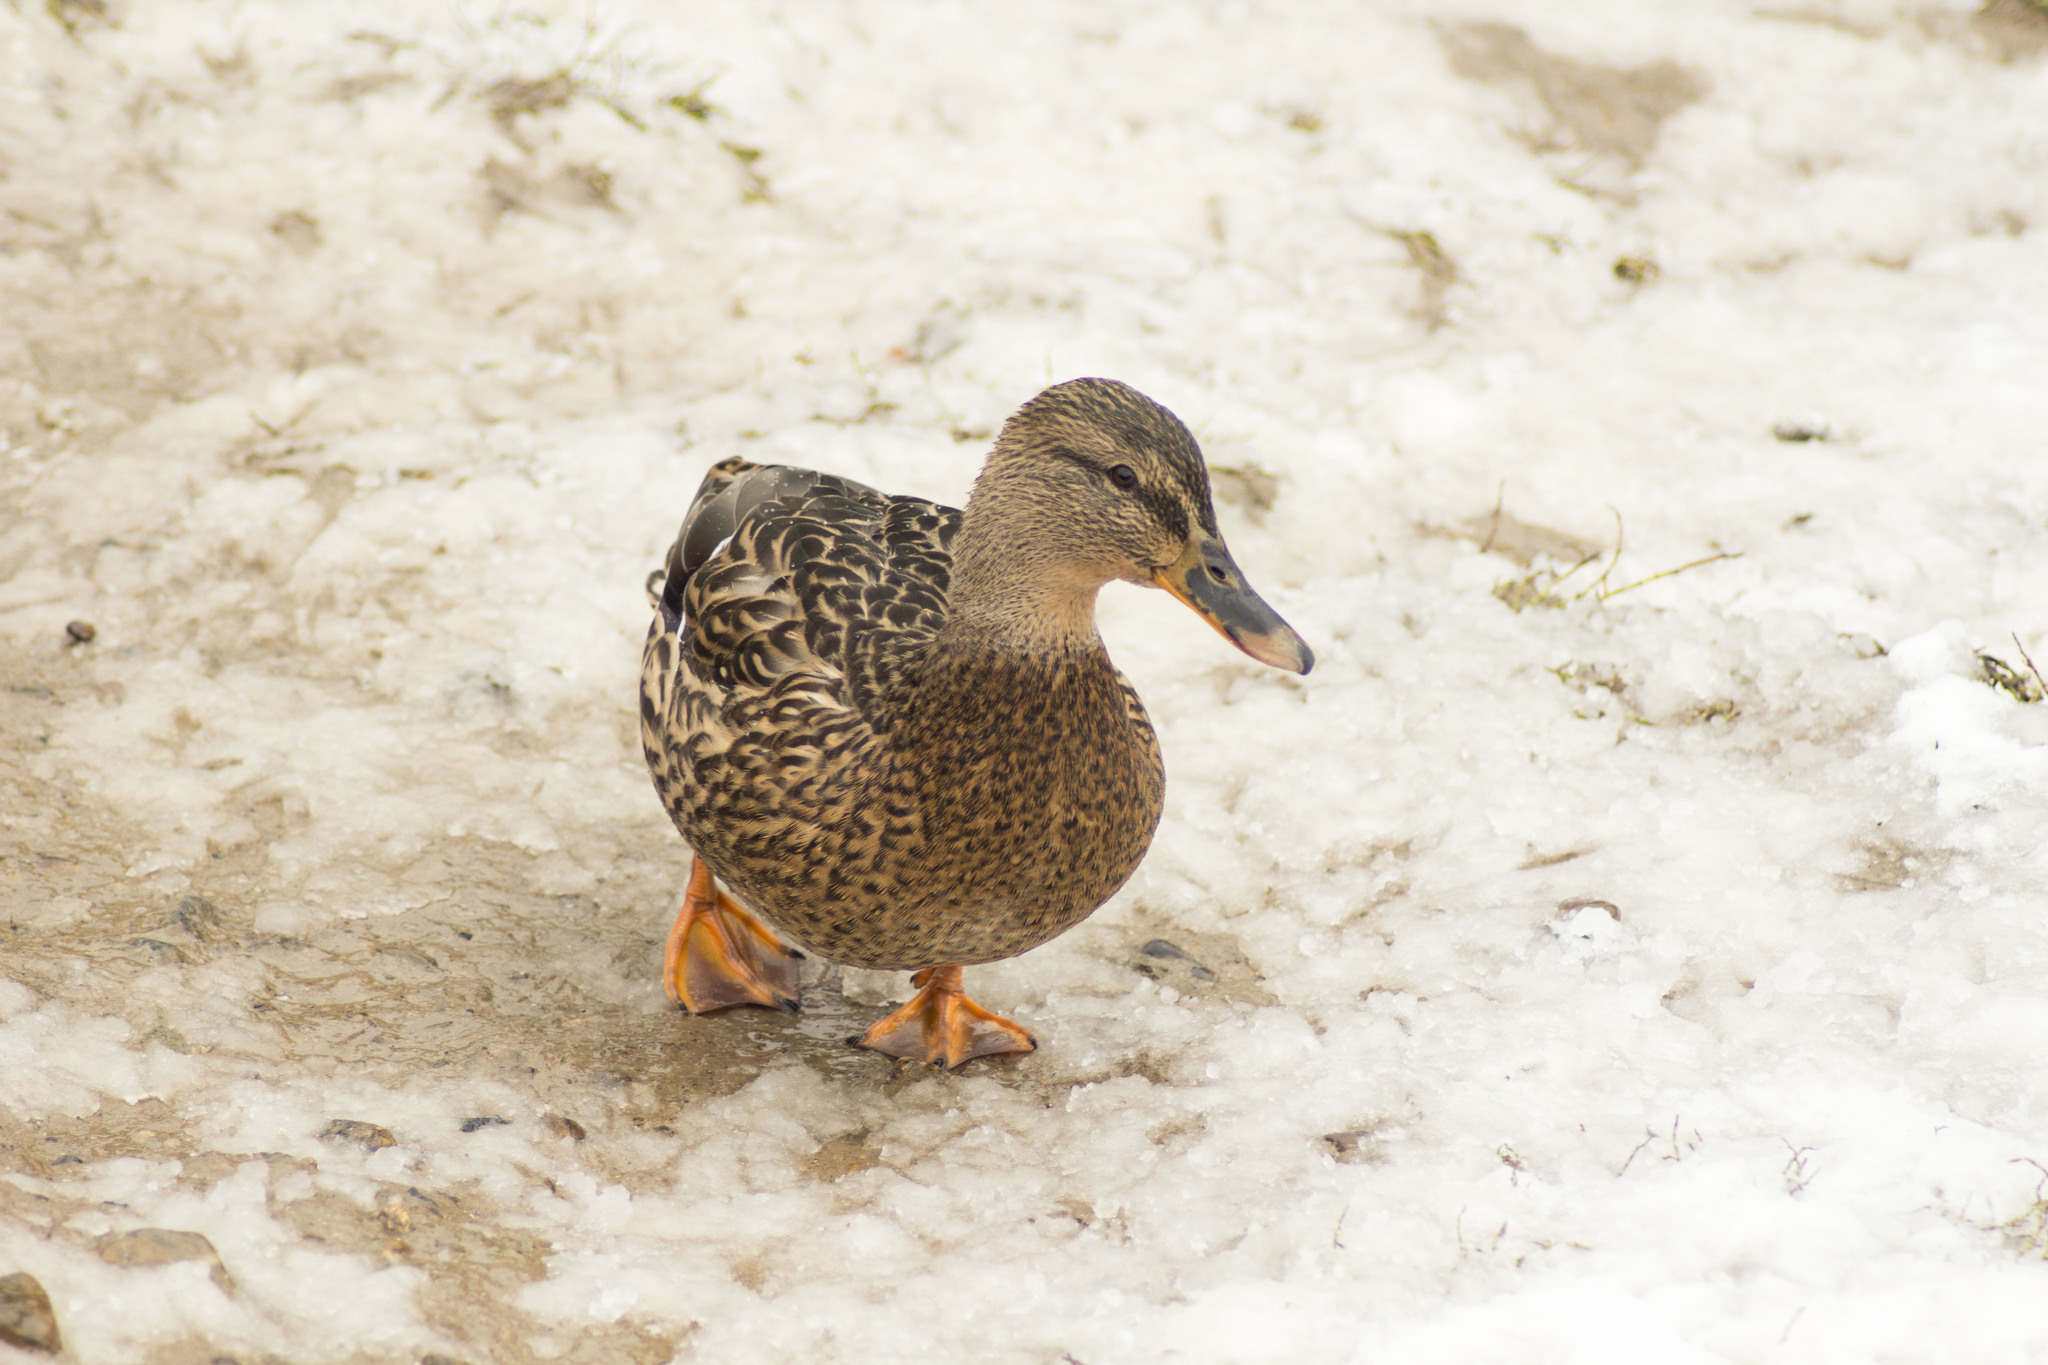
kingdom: Animalia
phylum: Chordata
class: Aves
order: Anseriformes
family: Anatidae
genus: Anas
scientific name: Anas platyrhynchos
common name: Mallard
